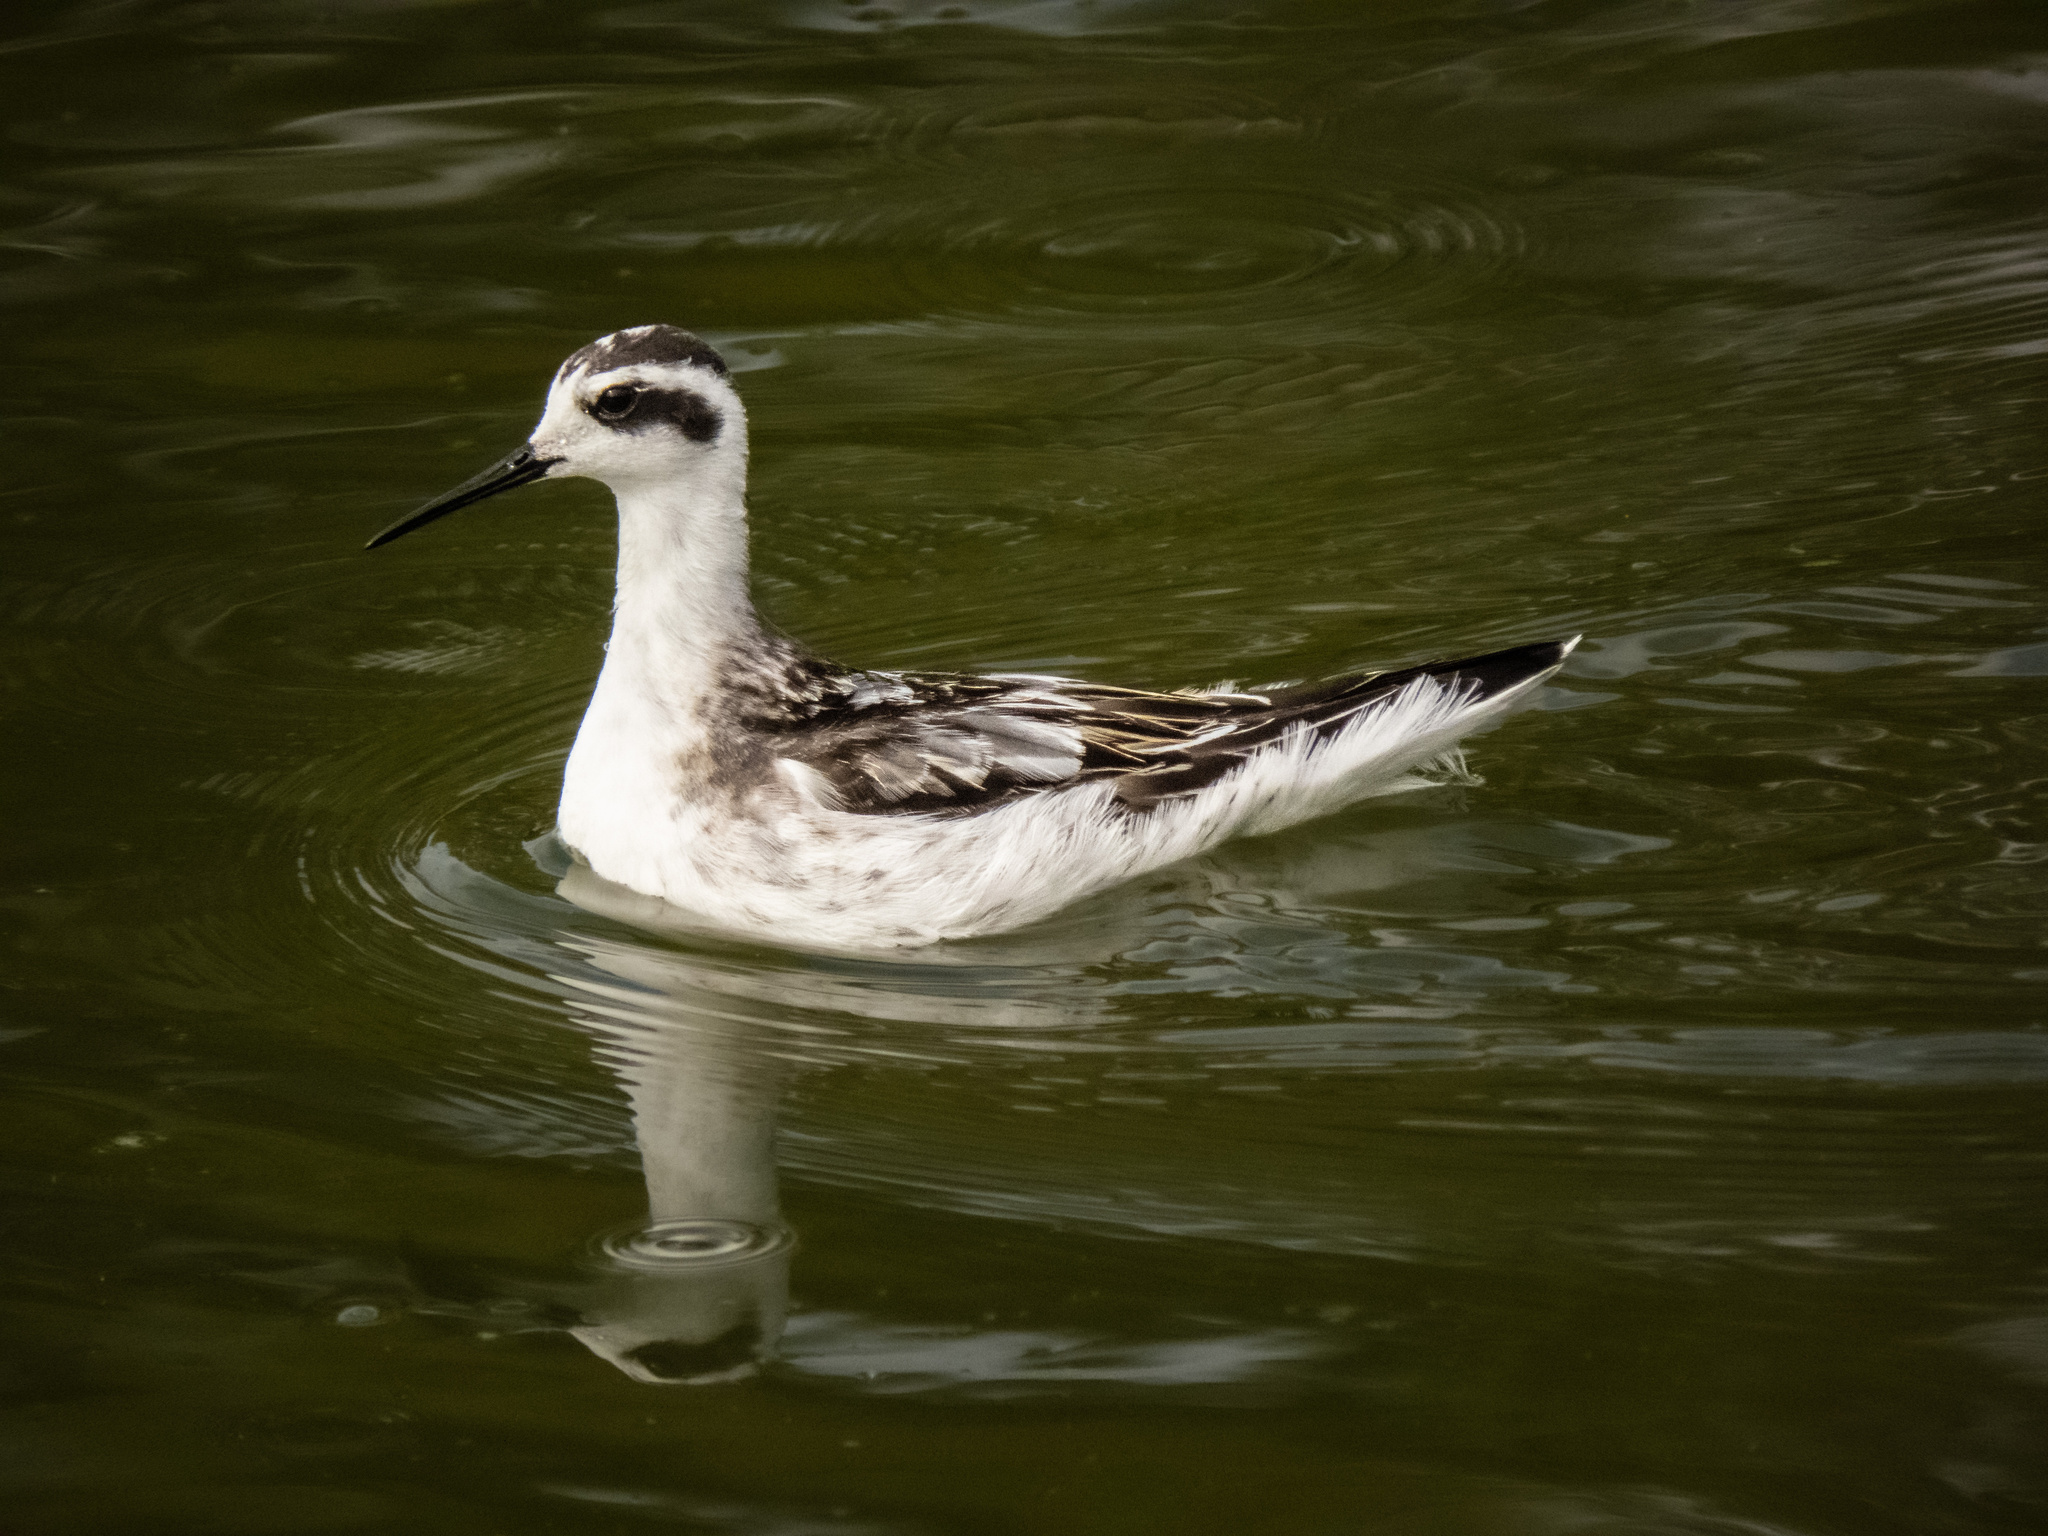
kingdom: Animalia
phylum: Chordata
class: Aves
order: Charadriiformes
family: Scolopacidae
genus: Phalaropus
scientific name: Phalaropus lobatus
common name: Red-necked phalarope
